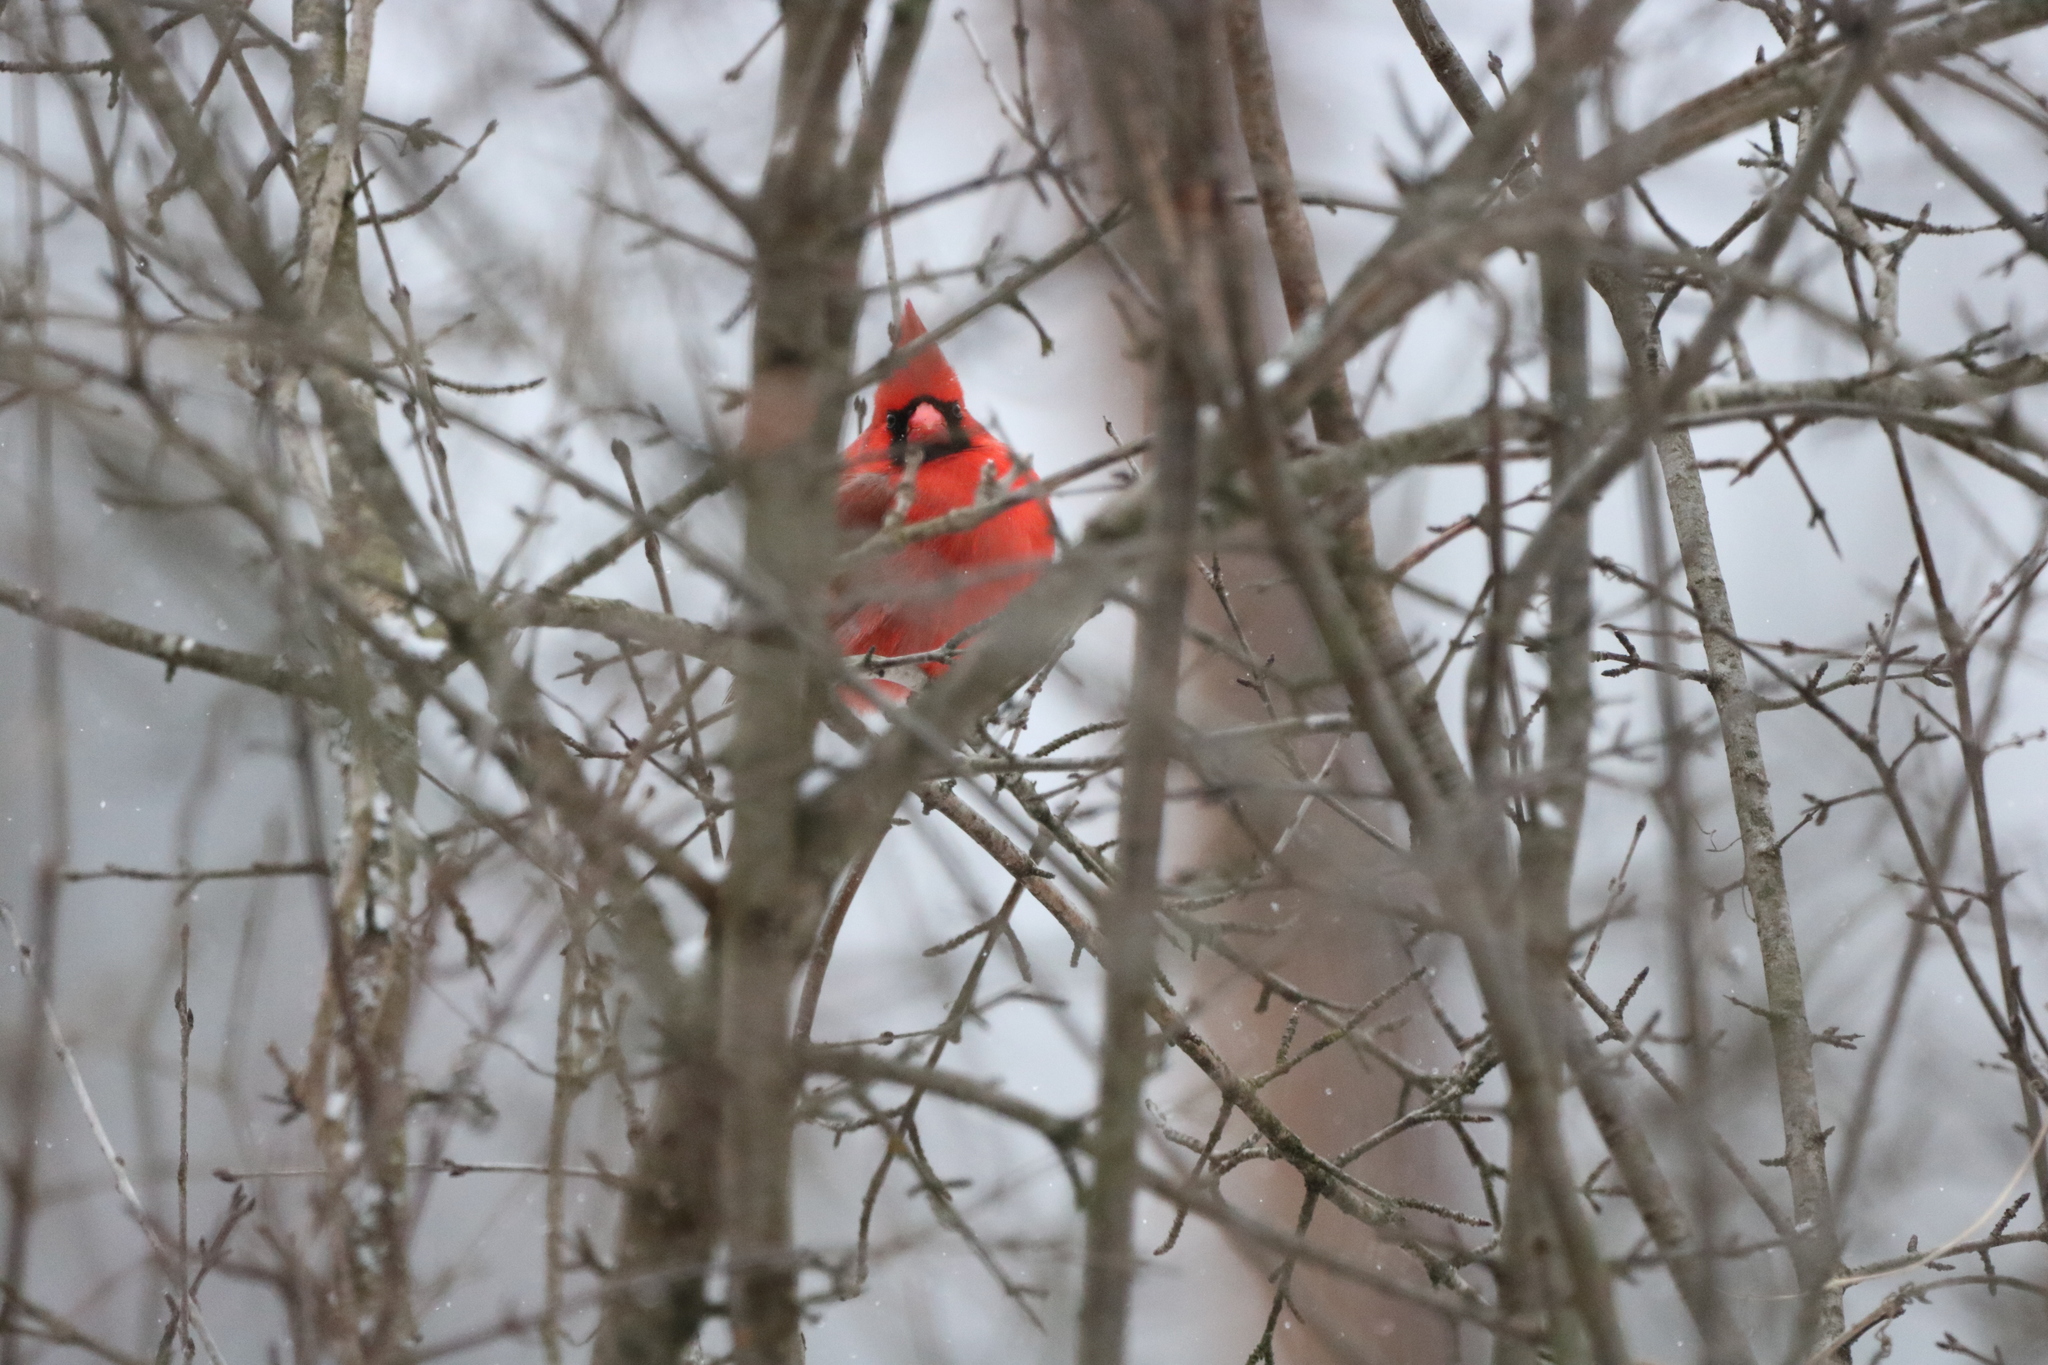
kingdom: Animalia
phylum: Chordata
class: Aves
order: Passeriformes
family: Cardinalidae
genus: Cardinalis
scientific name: Cardinalis cardinalis
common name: Northern cardinal
